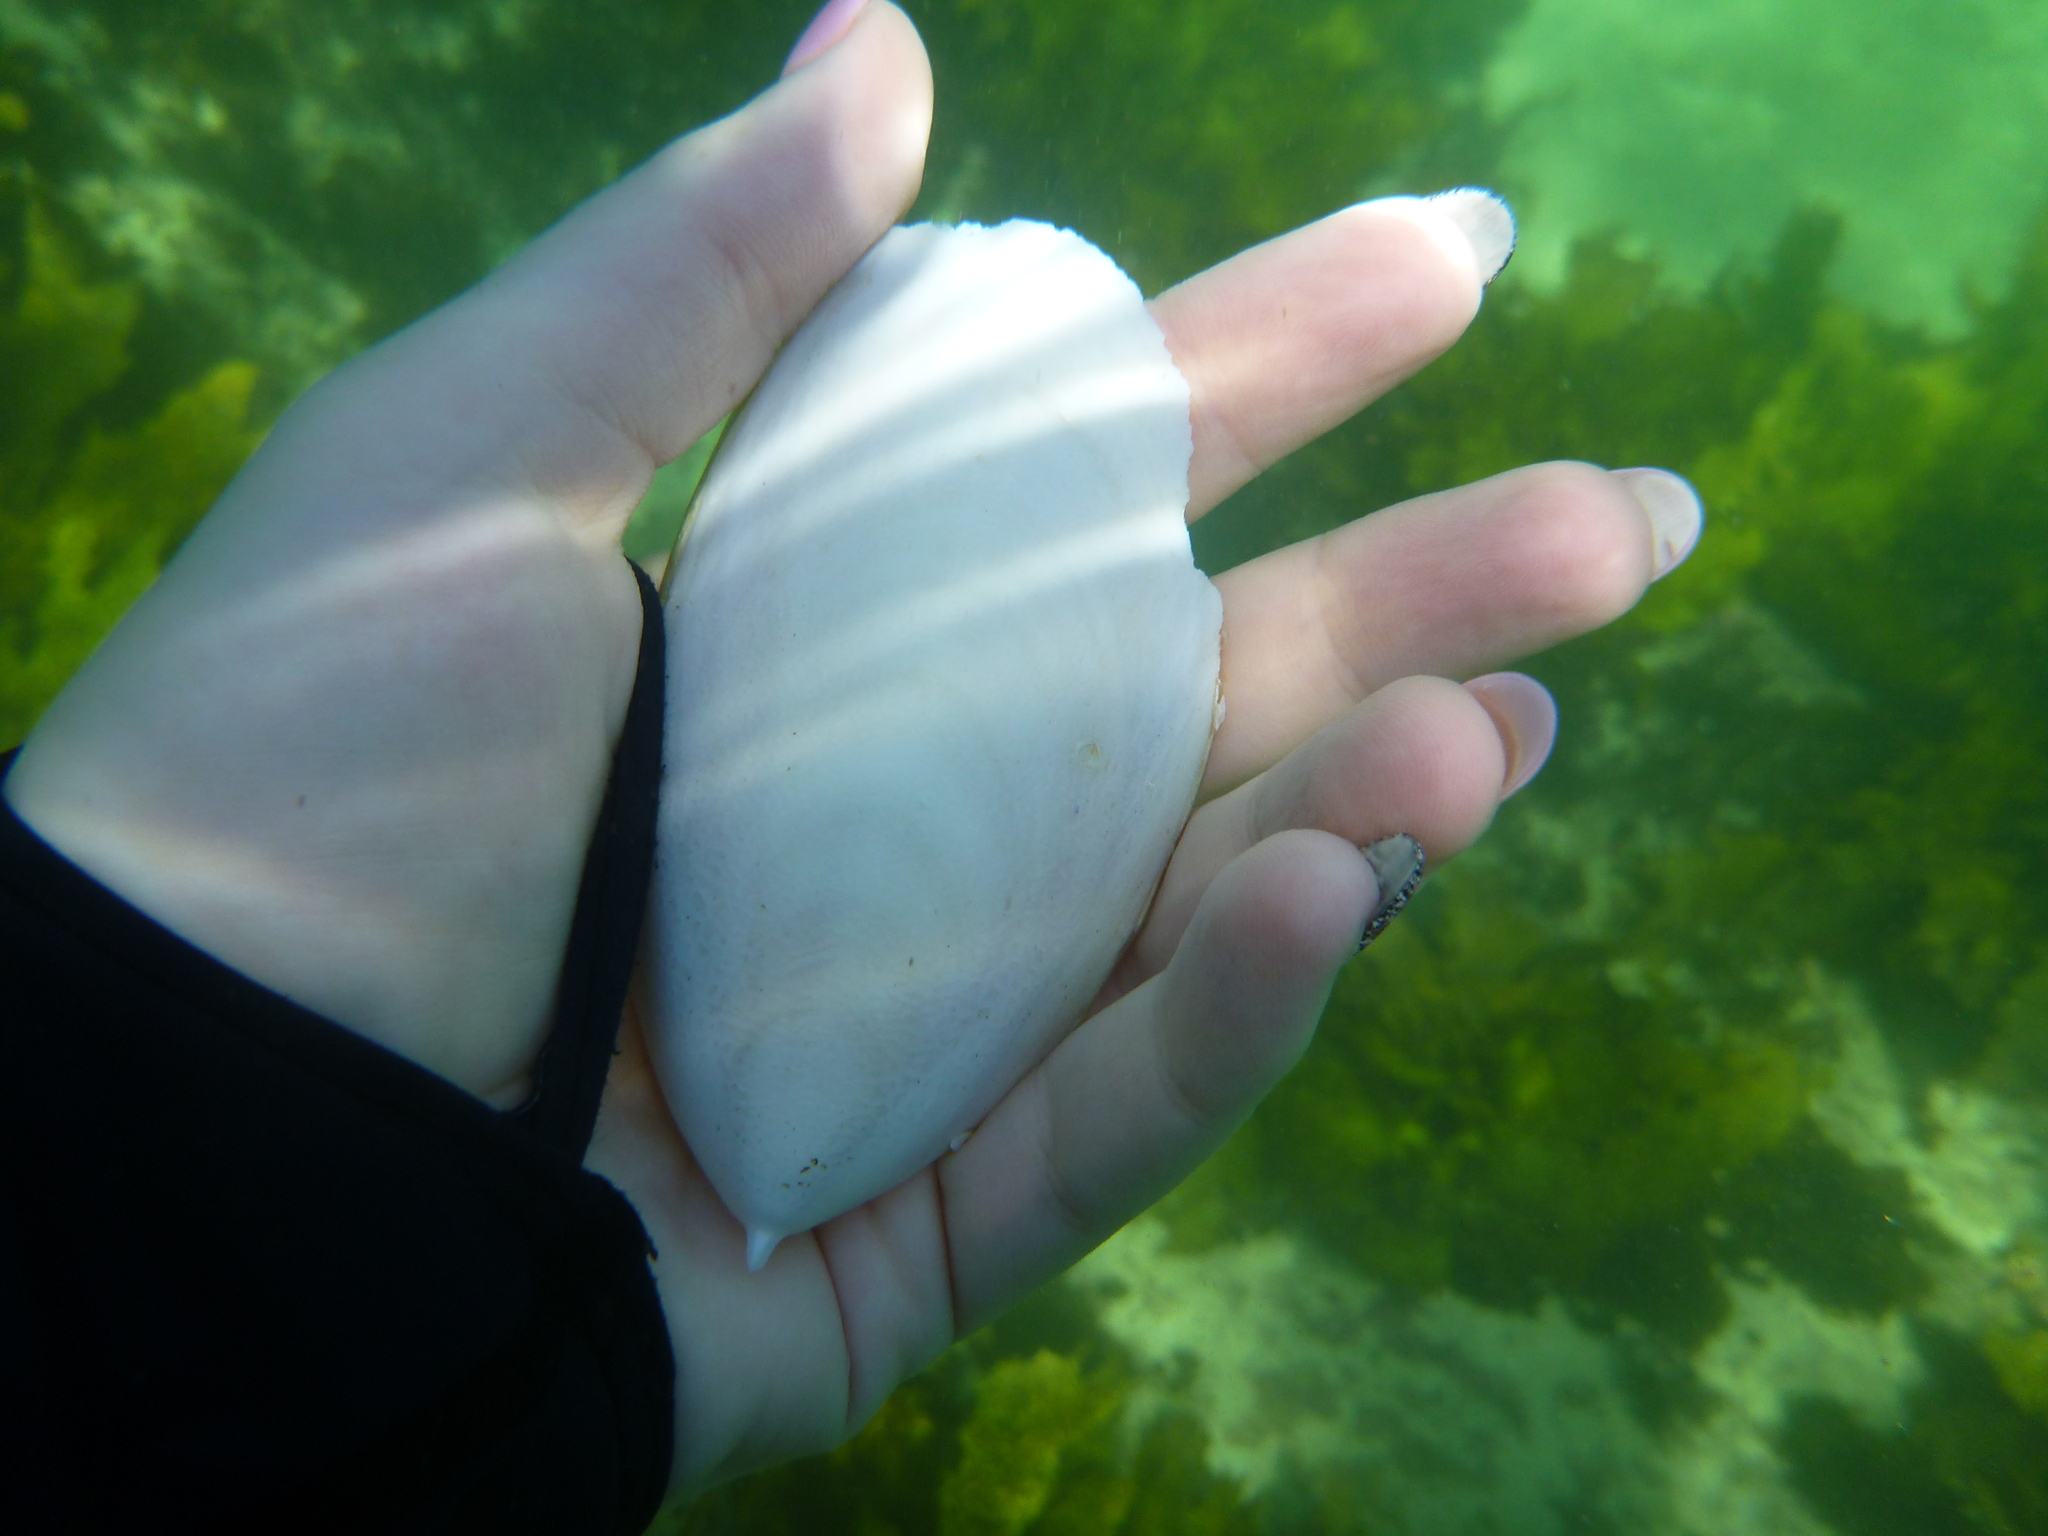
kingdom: Animalia
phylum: Mollusca
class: Cephalopoda
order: Sepiida
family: Sepiidae
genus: Ascarosepion
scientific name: Ascarosepion mestus
